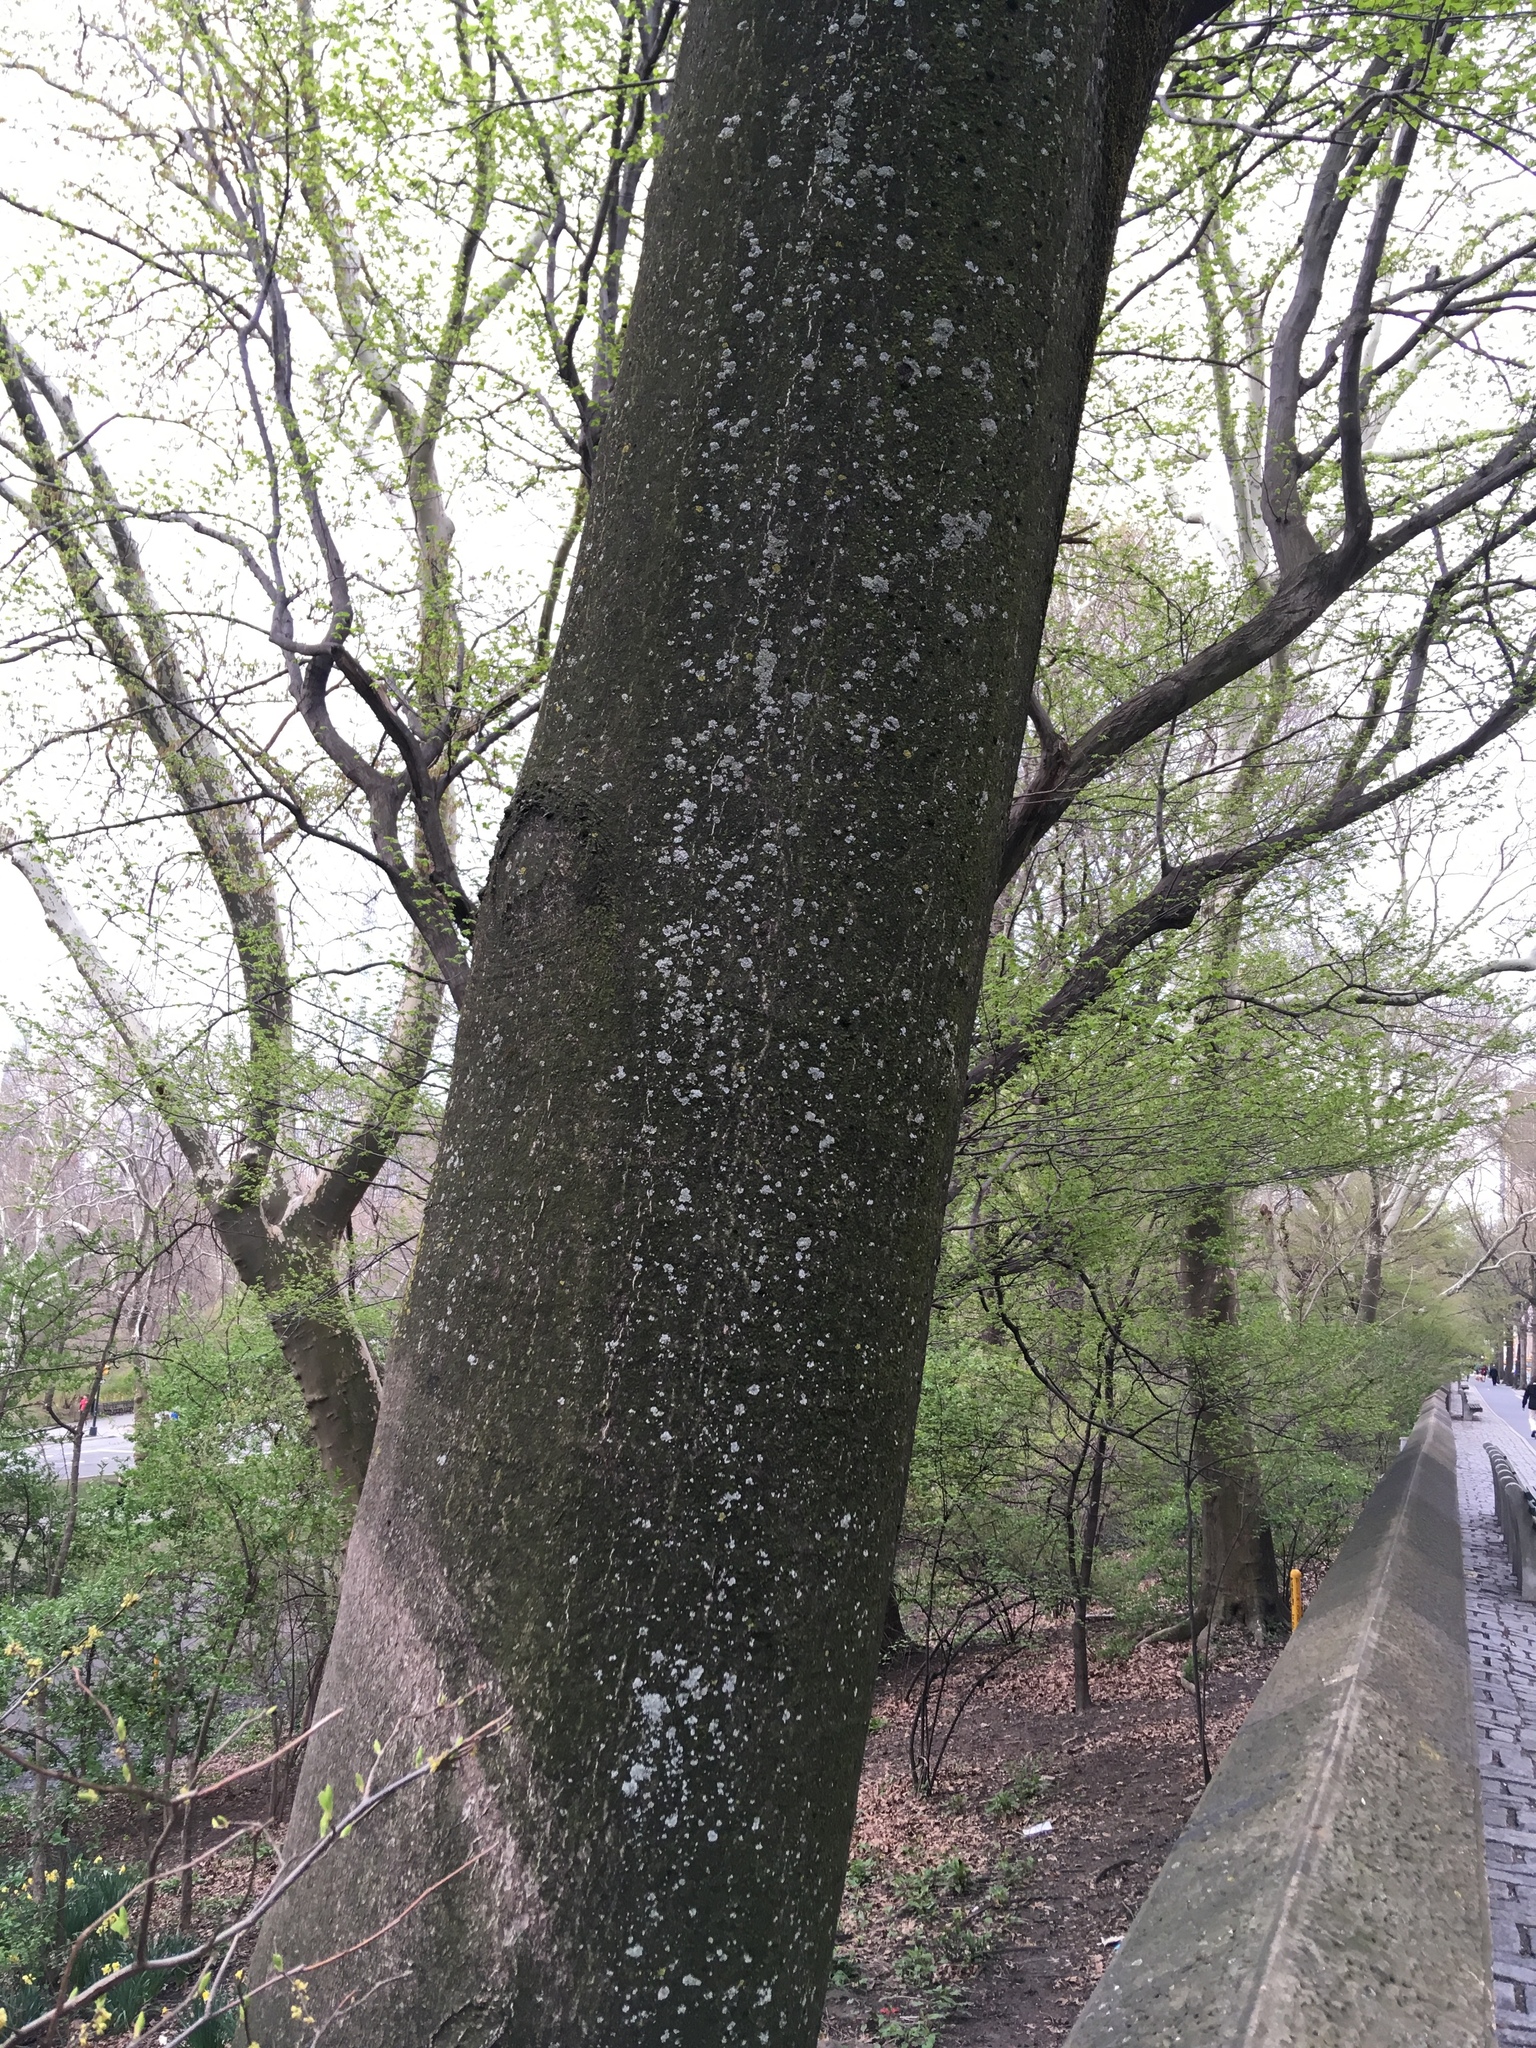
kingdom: Plantae
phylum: Tracheophyta
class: Magnoliopsida
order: Sapindales
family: Simaroubaceae
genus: Ailanthus
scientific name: Ailanthus altissima
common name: Tree-of-heaven
